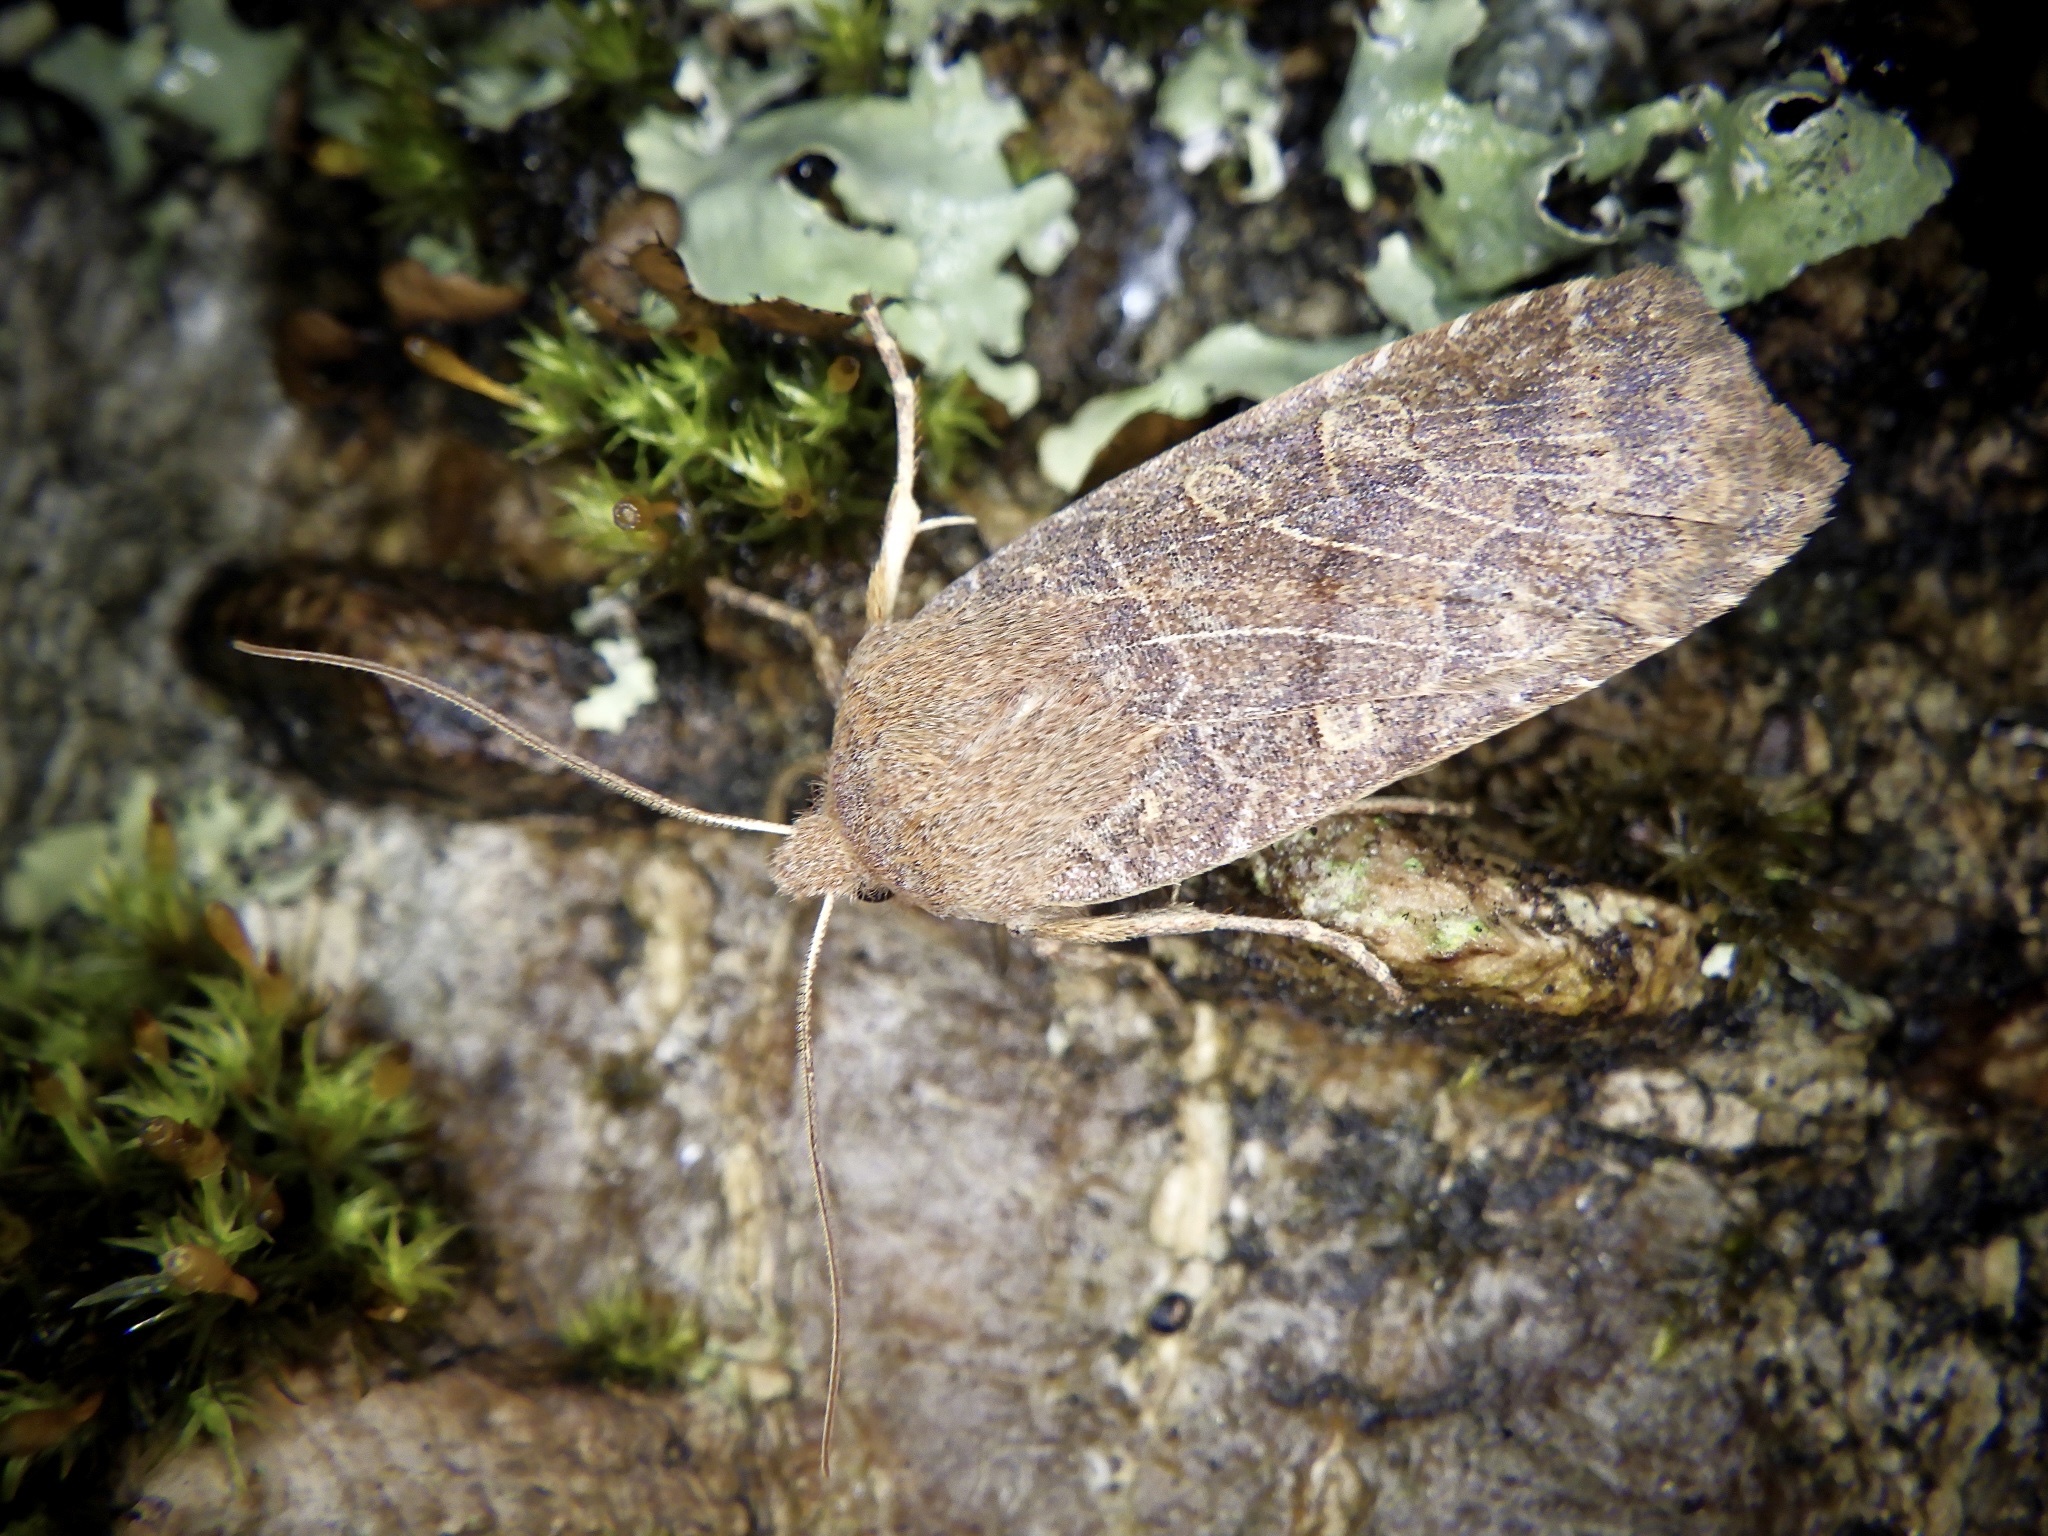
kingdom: Animalia
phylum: Arthropoda
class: Insecta
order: Lepidoptera
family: Noctuidae
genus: Conistra
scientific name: Conistra fletcheri
